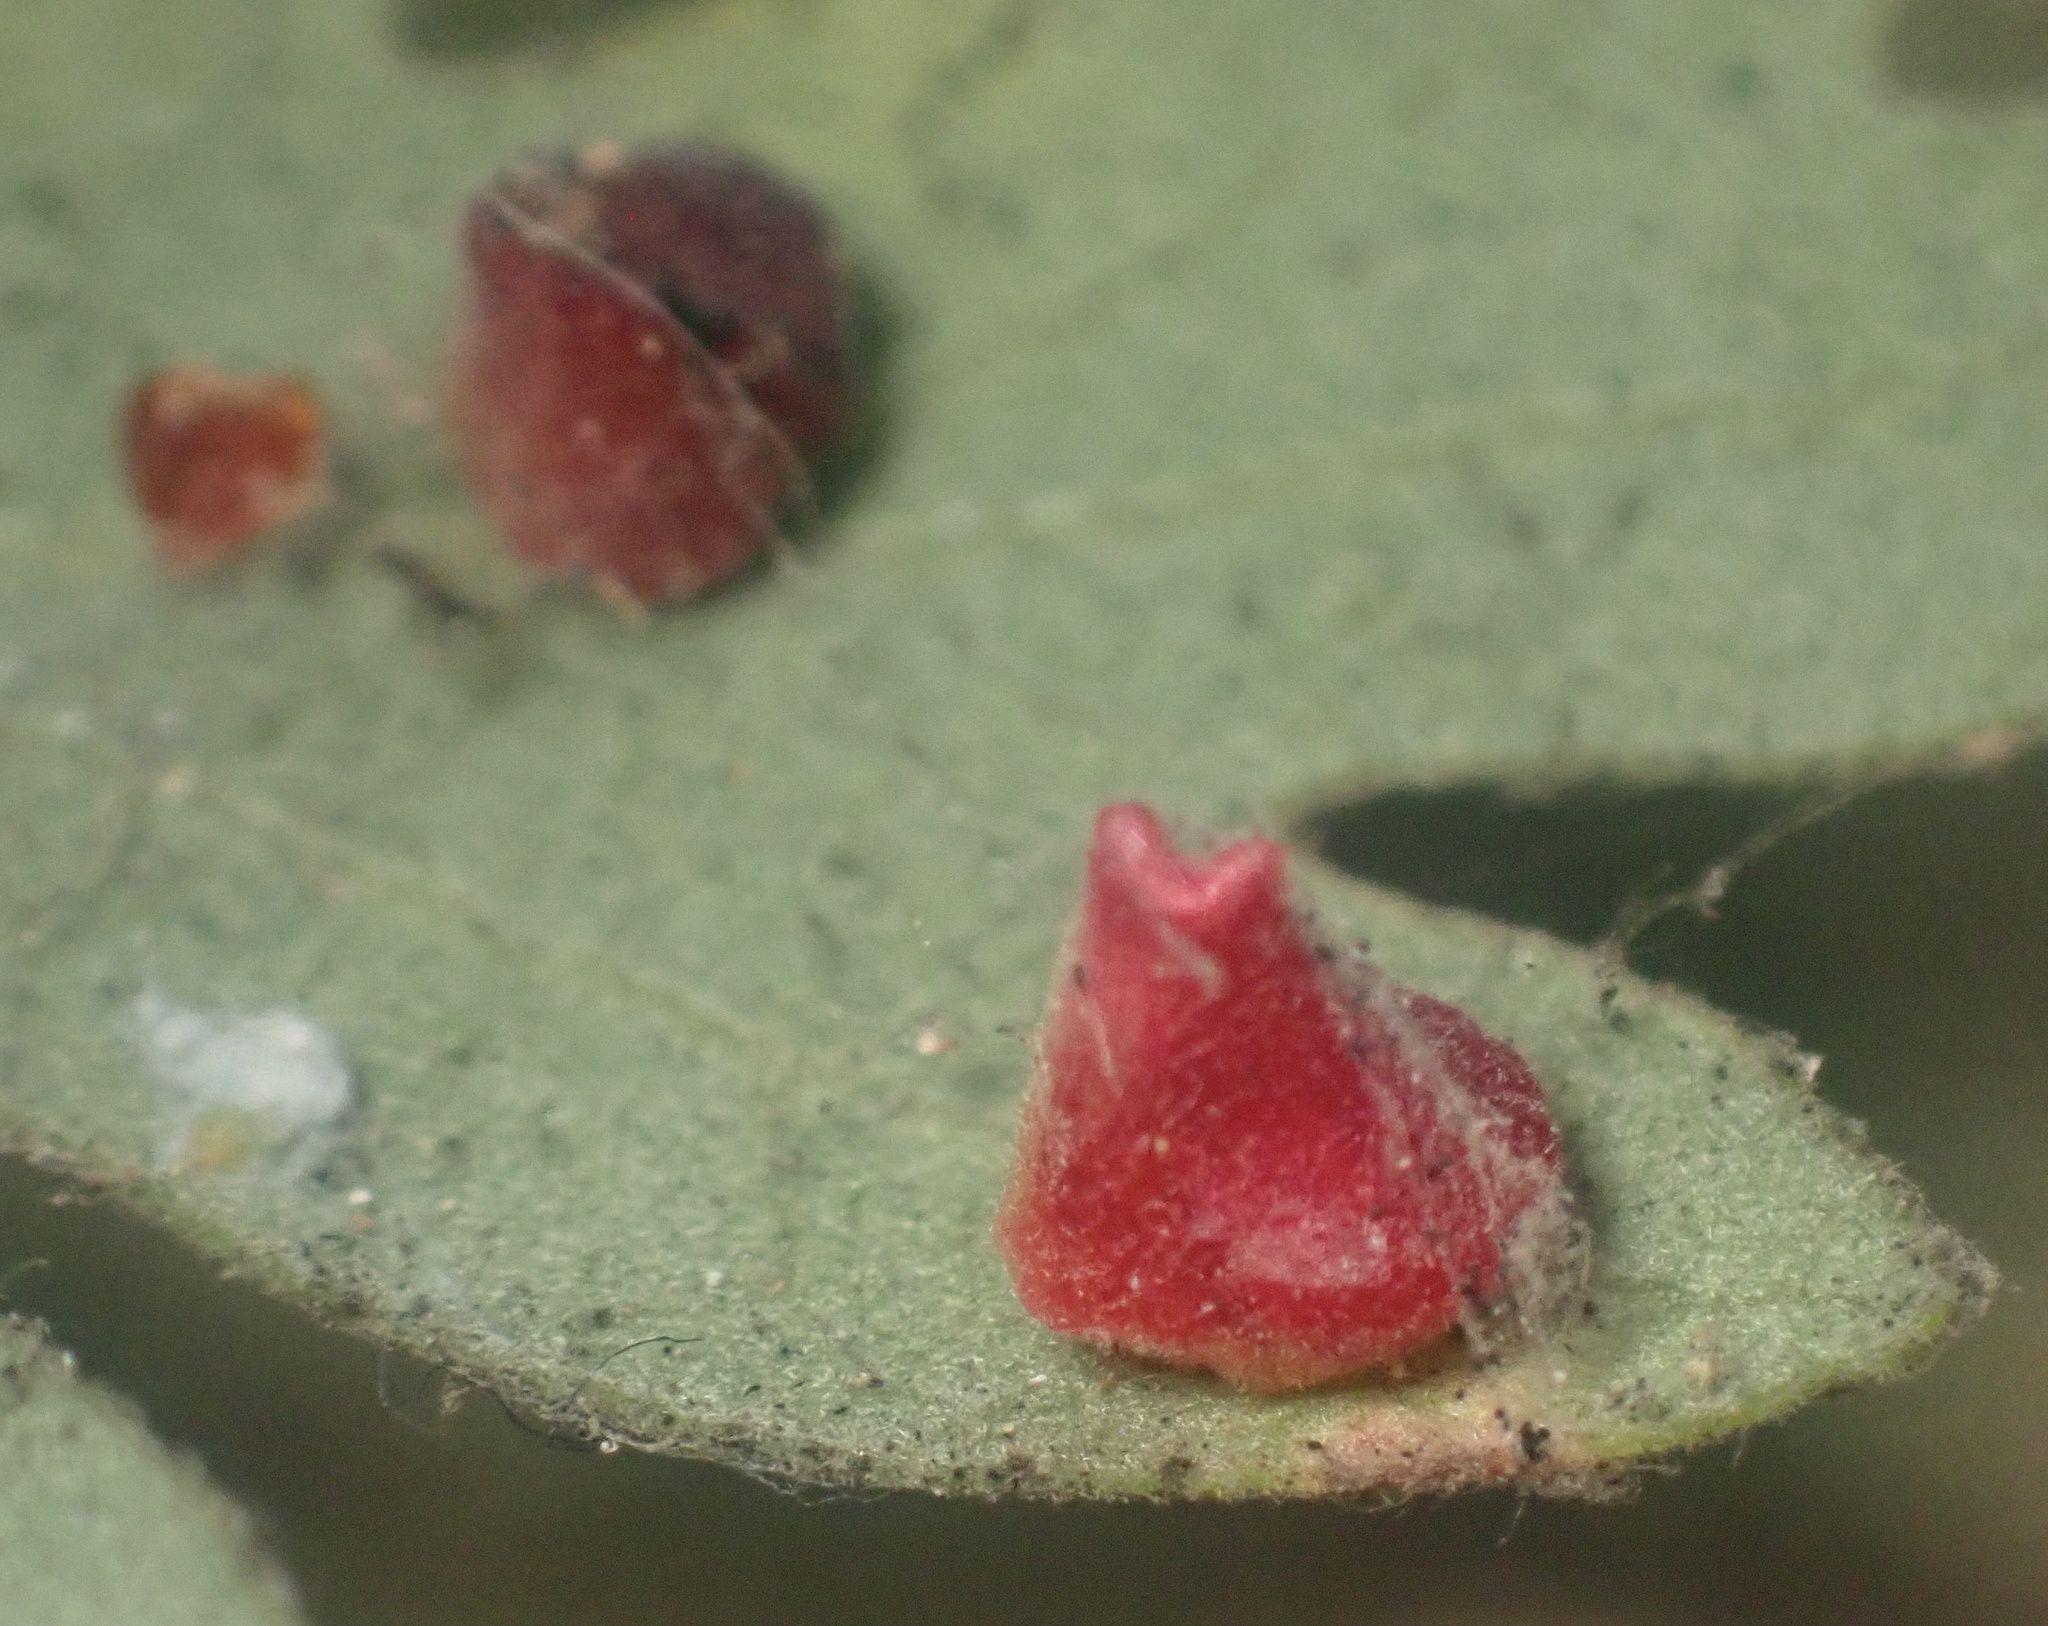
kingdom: Animalia
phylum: Arthropoda
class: Insecta
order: Hymenoptera
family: Cynipidae
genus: Andricus
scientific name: Andricus
